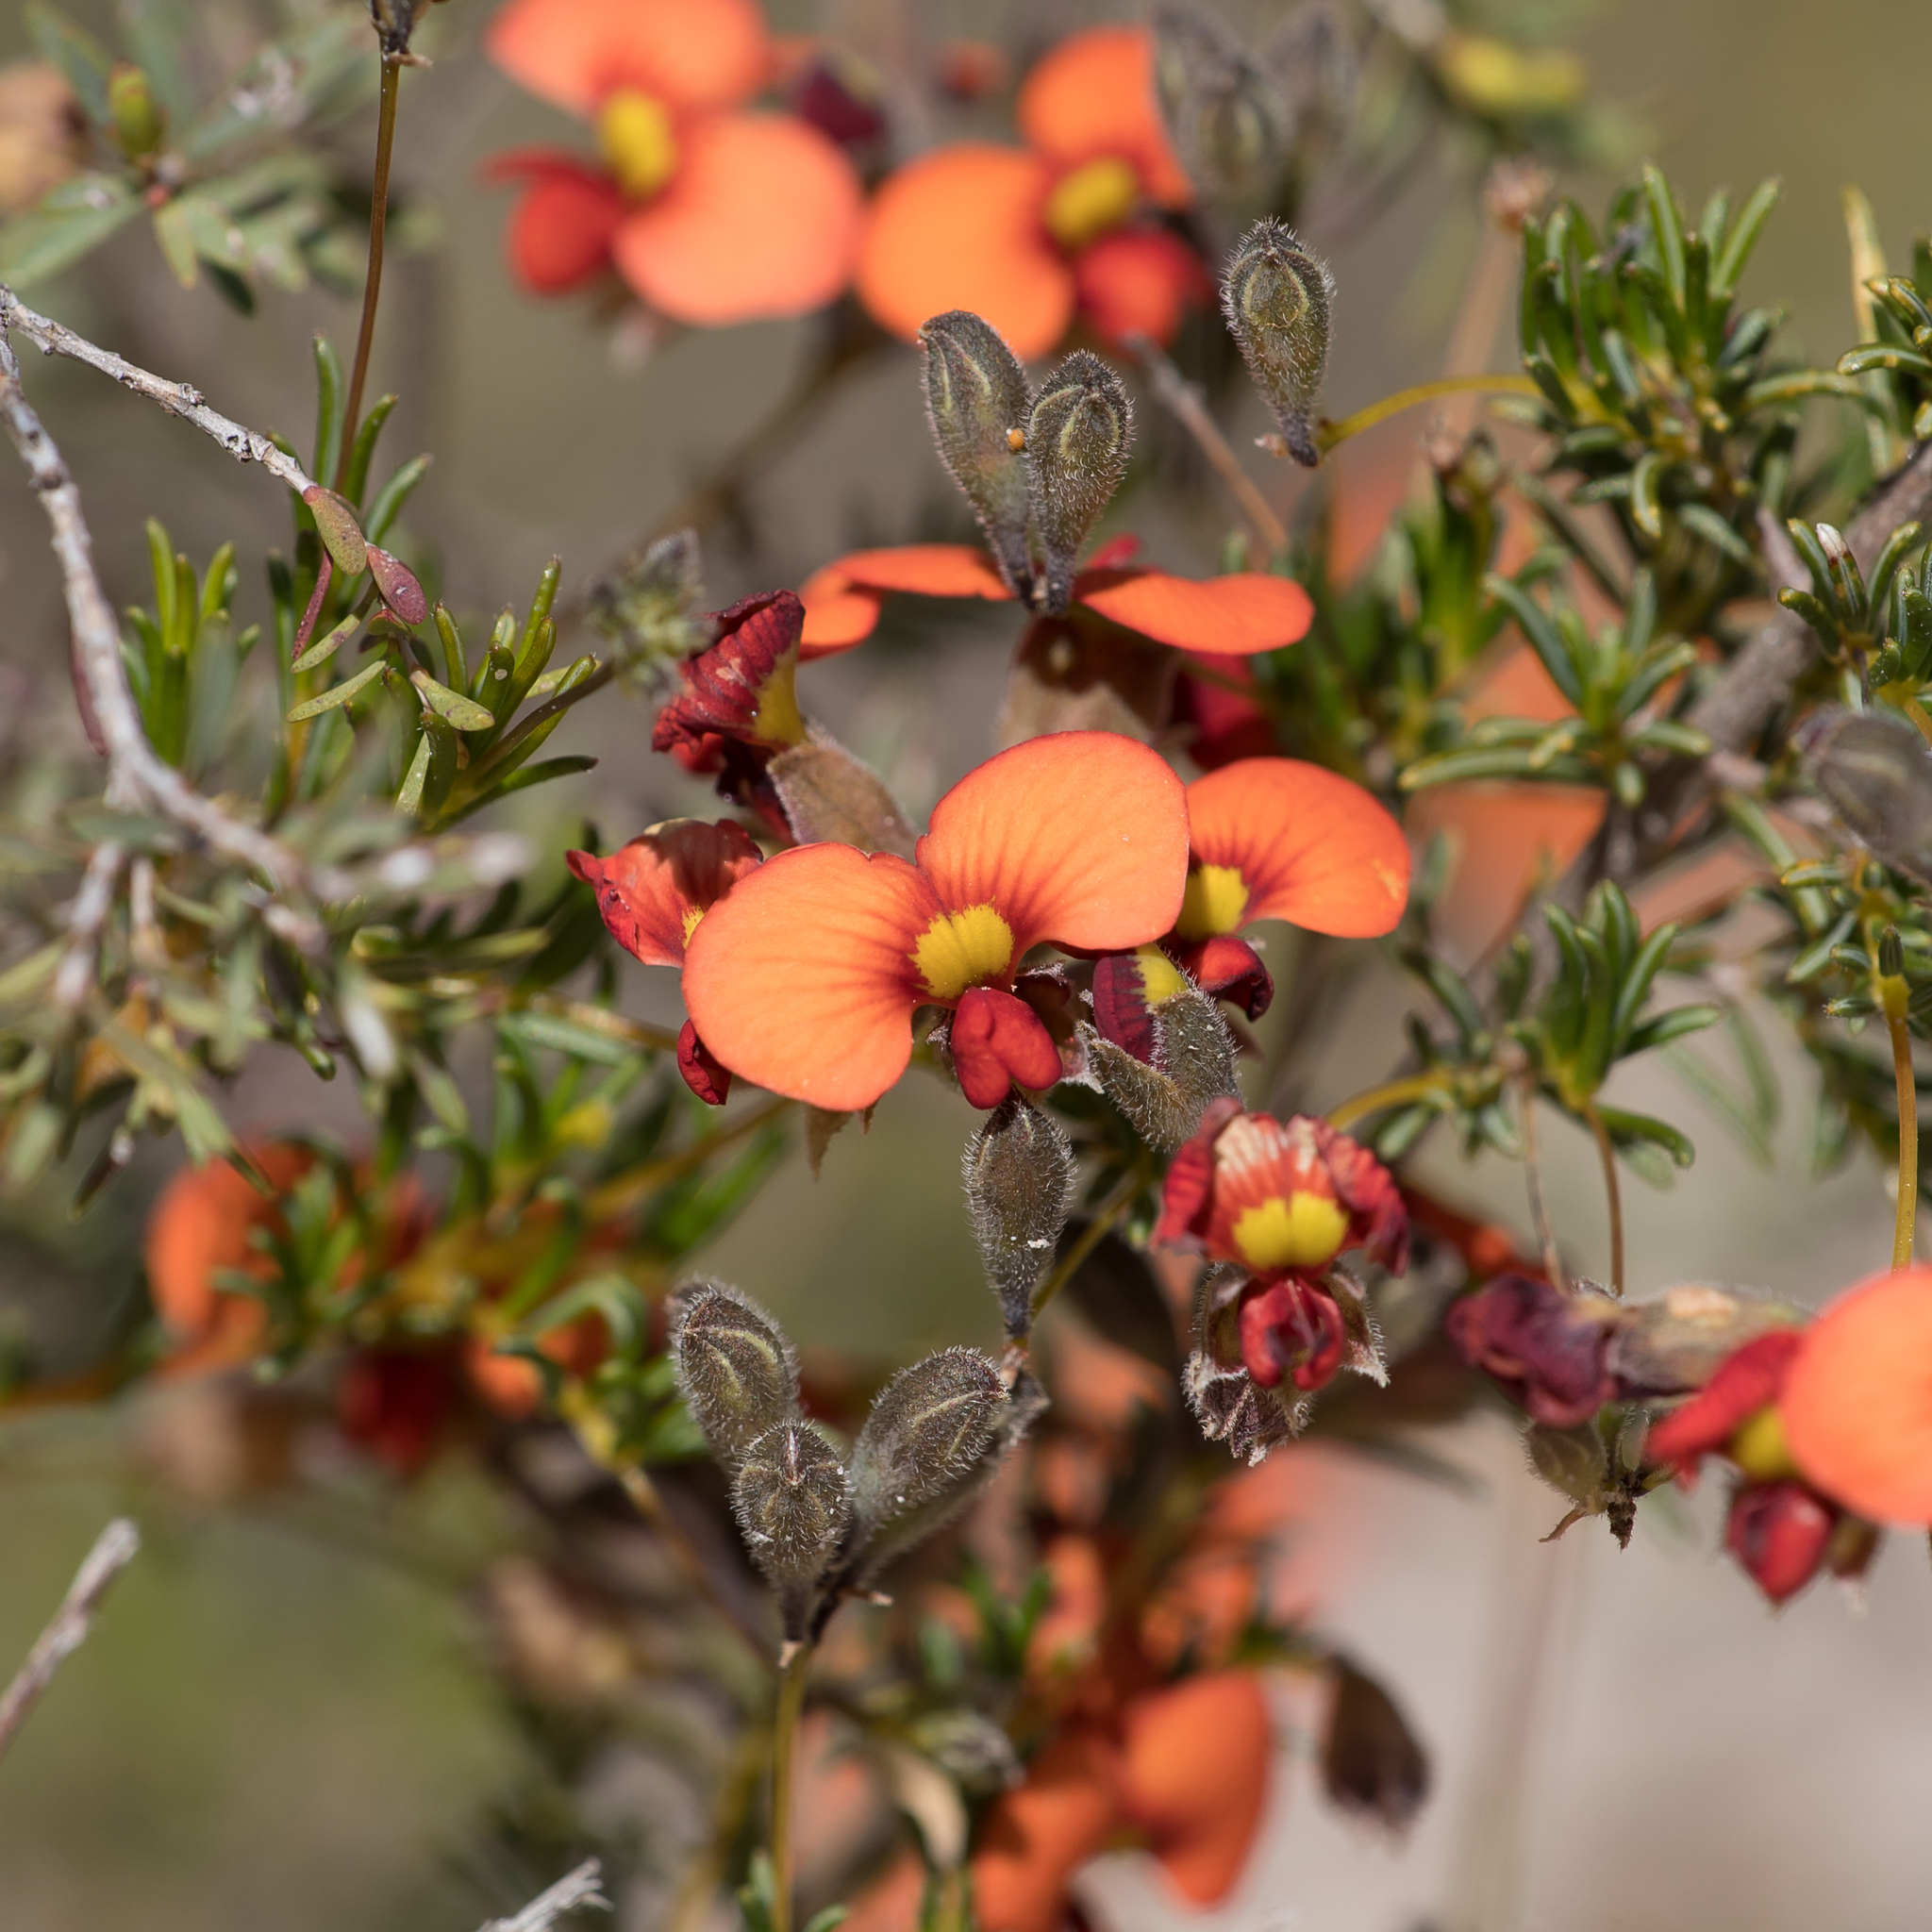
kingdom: Plantae
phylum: Tracheophyta
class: Magnoliopsida
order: Fabales
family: Fabaceae
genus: Dillwynia
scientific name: Dillwynia hispida
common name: Red parrot-pea
